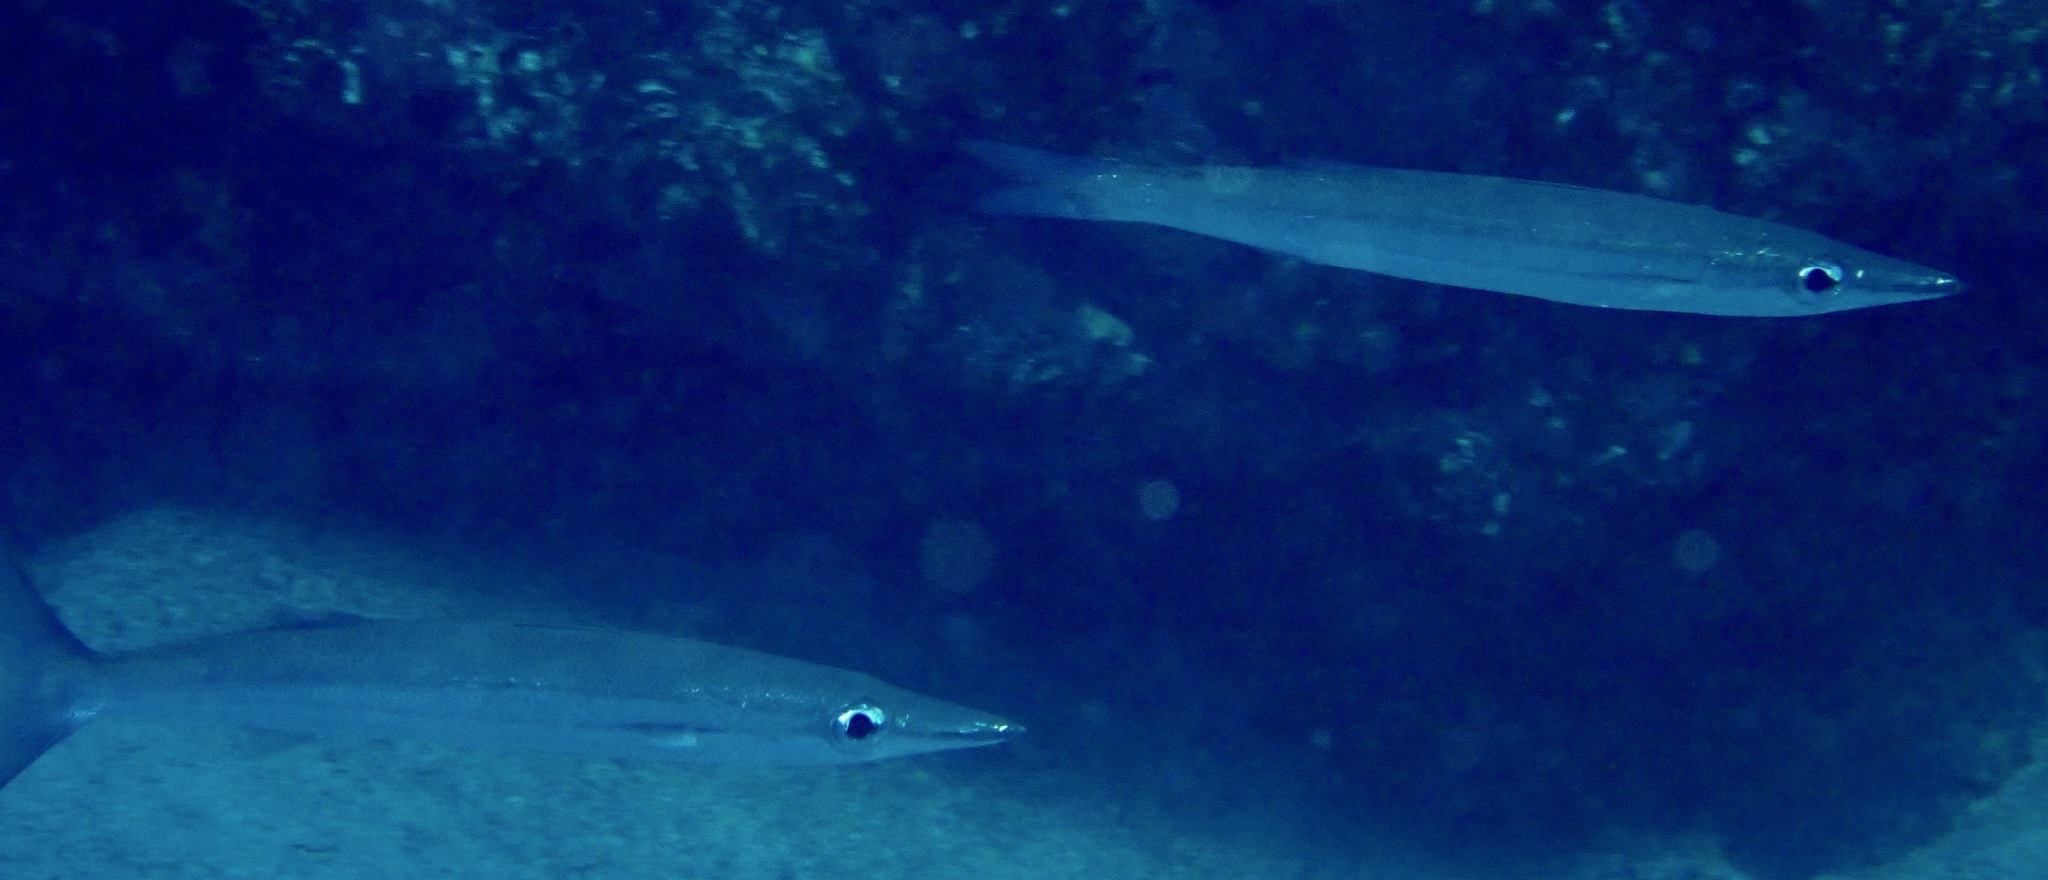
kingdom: Animalia
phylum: Chordata
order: Perciformes
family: Sphyraenidae
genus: Sphyraena
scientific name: Sphyraena obtusata
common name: Obtuse barracuda
